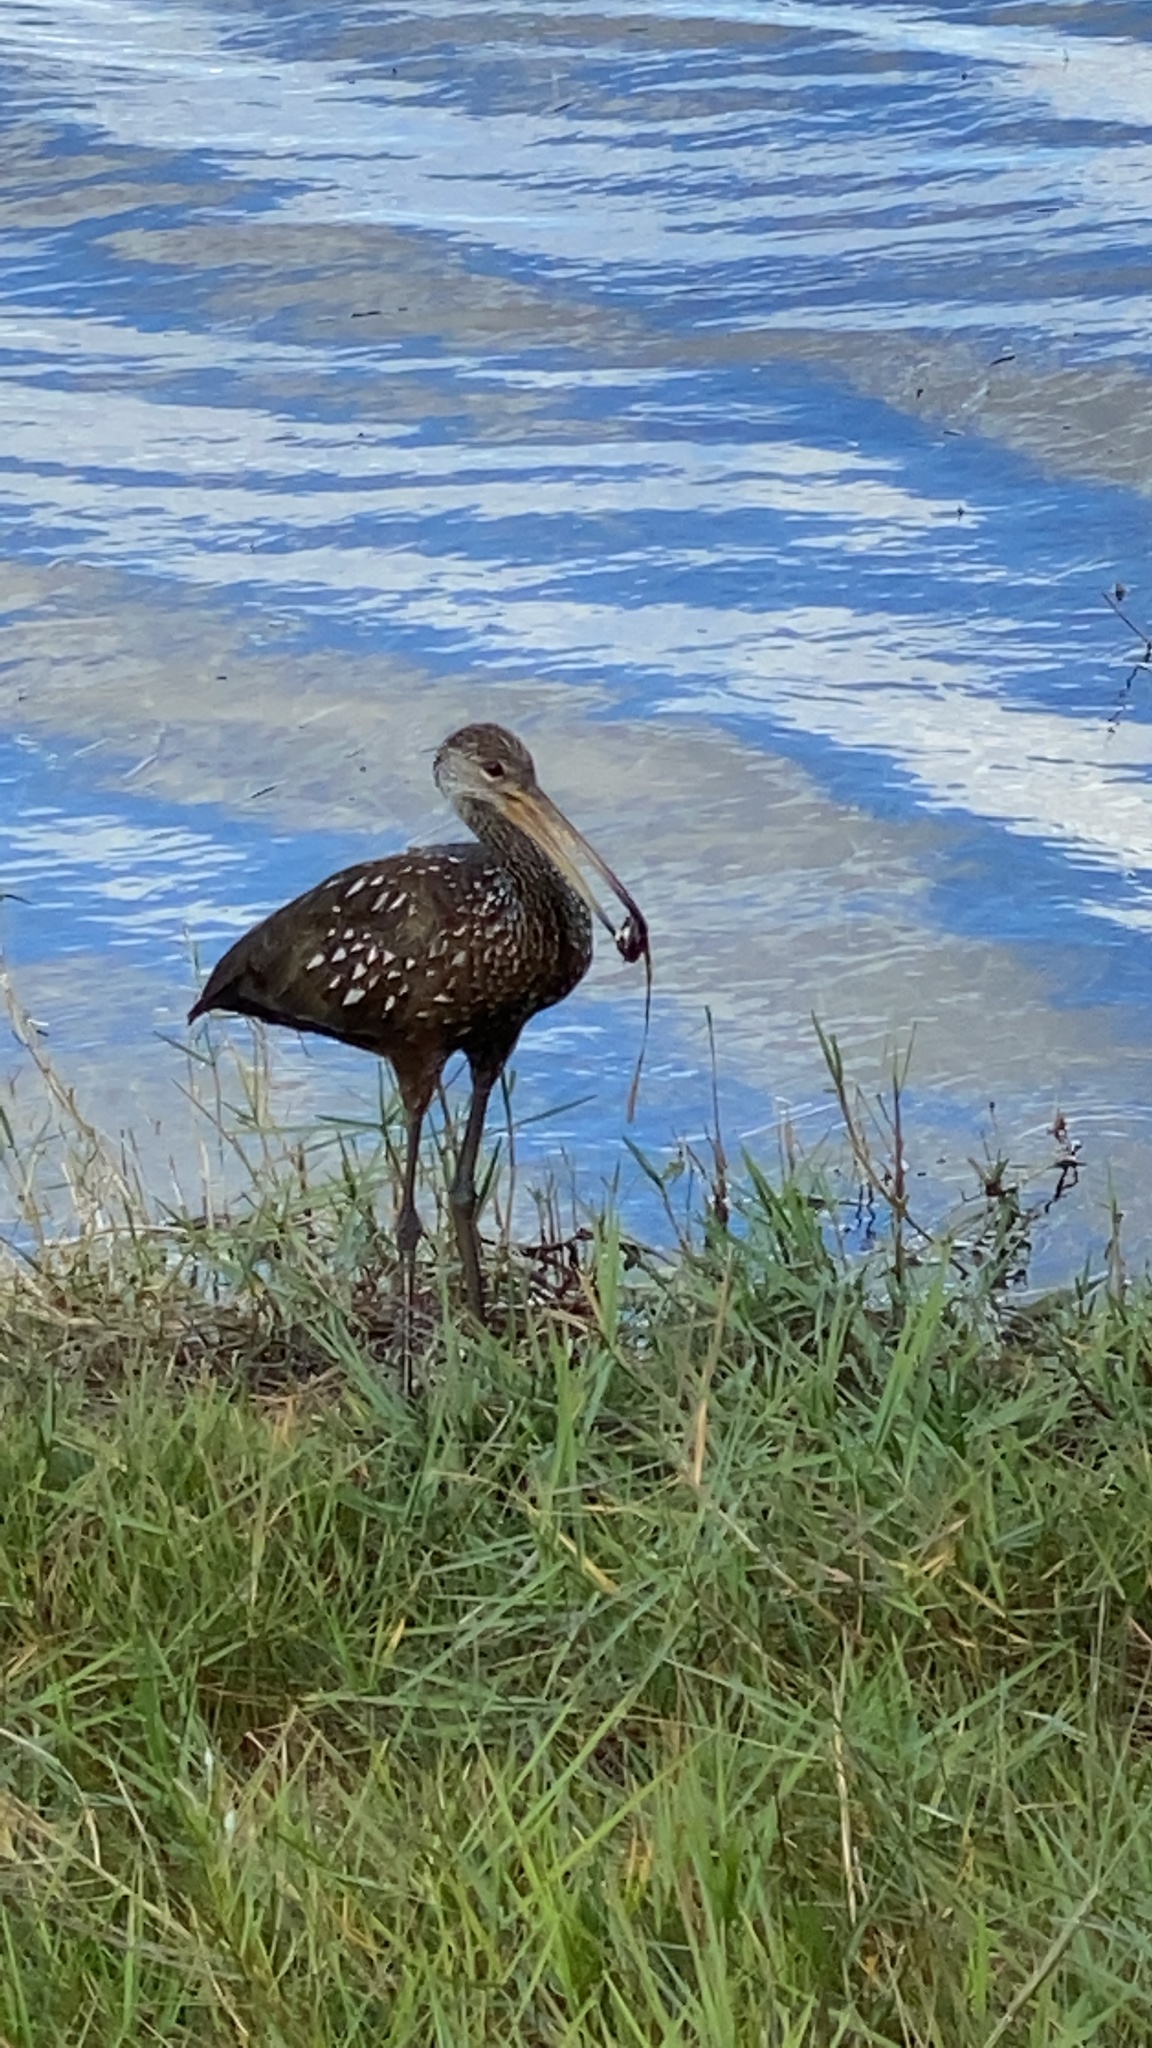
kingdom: Animalia
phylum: Chordata
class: Aves
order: Gruiformes
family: Aramidae
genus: Aramus
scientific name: Aramus guarauna
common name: Limpkin
